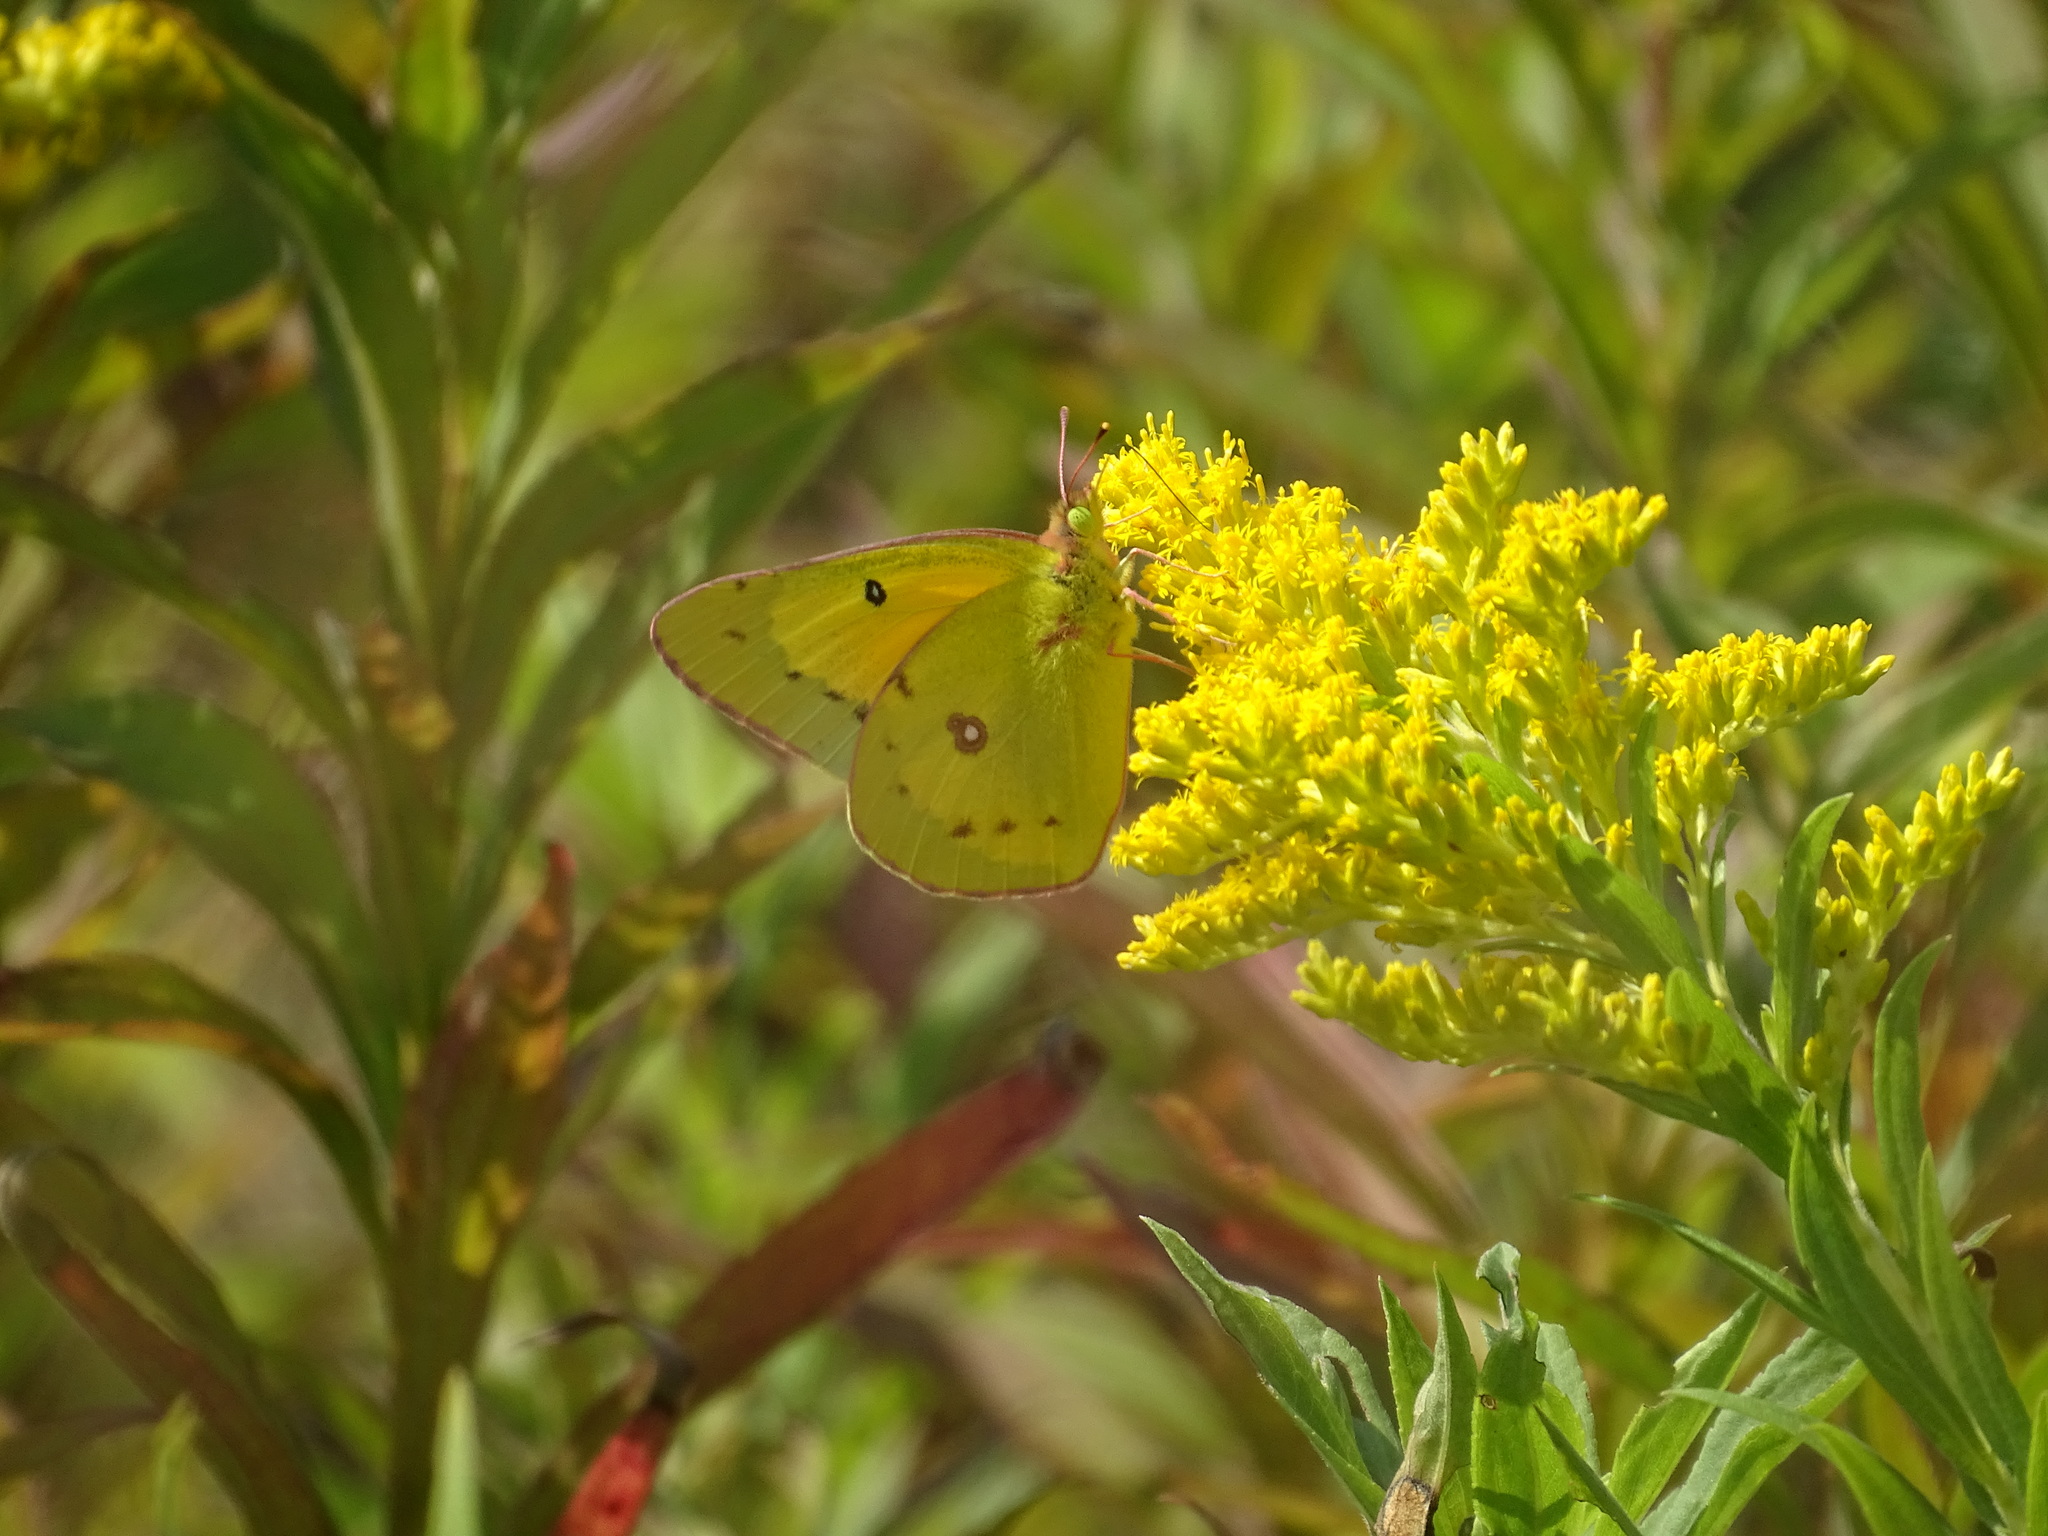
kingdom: Animalia
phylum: Arthropoda
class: Insecta
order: Lepidoptera
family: Pieridae
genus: Colias
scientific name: Colias eurytheme
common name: Alfalfa butterfly
